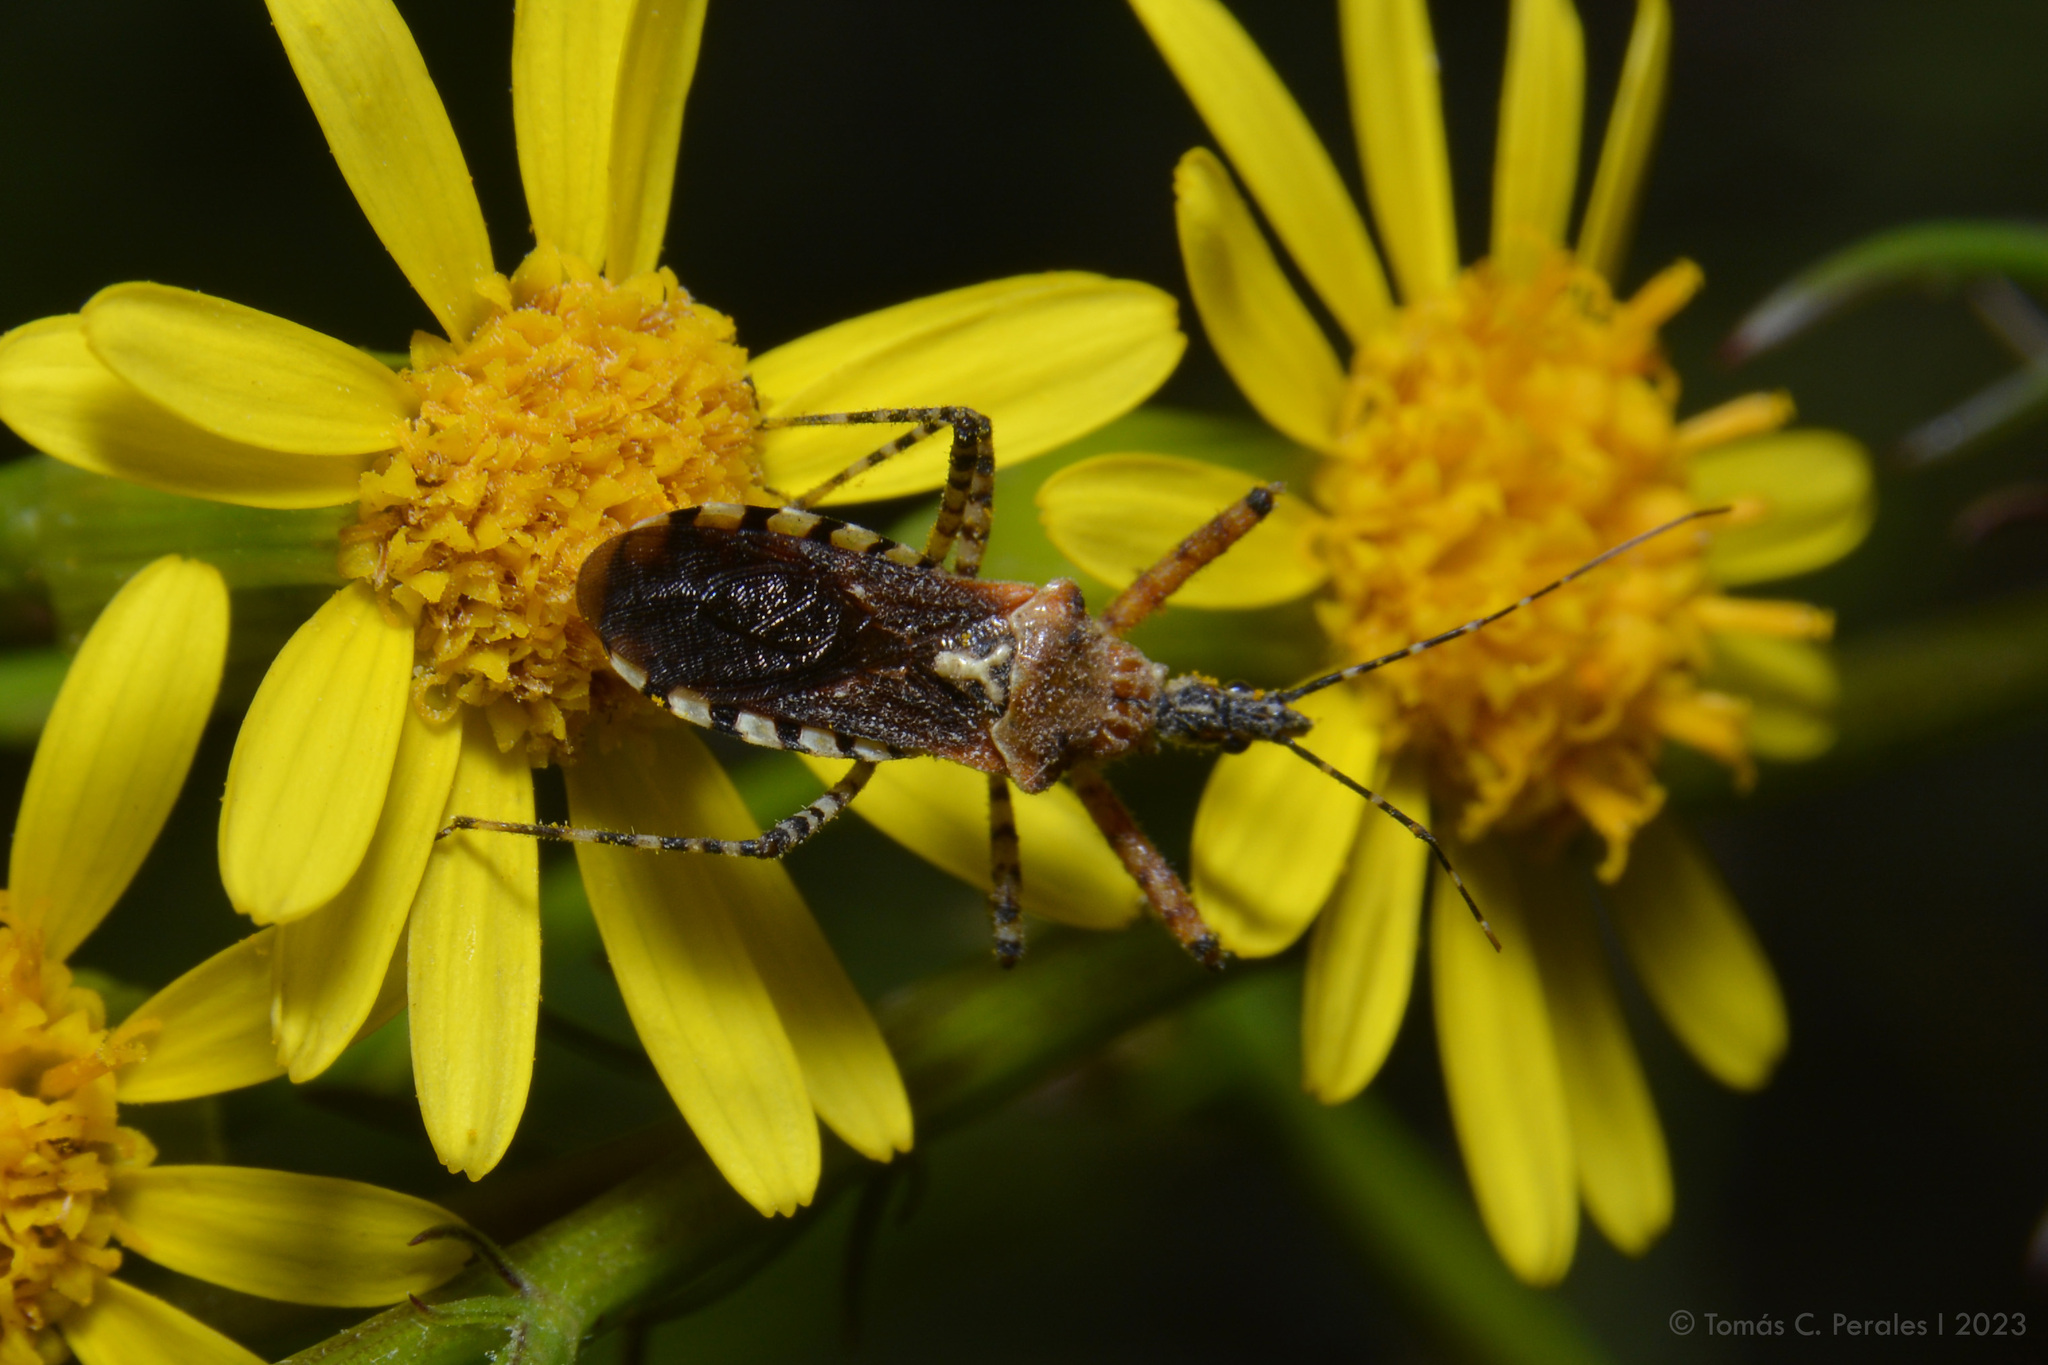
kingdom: Animalia
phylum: Arthropoda
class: Insecta
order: Hemiptera
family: Reduviidae
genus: Cosmoclopius
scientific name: Cosmoclopius nigroannulatus
